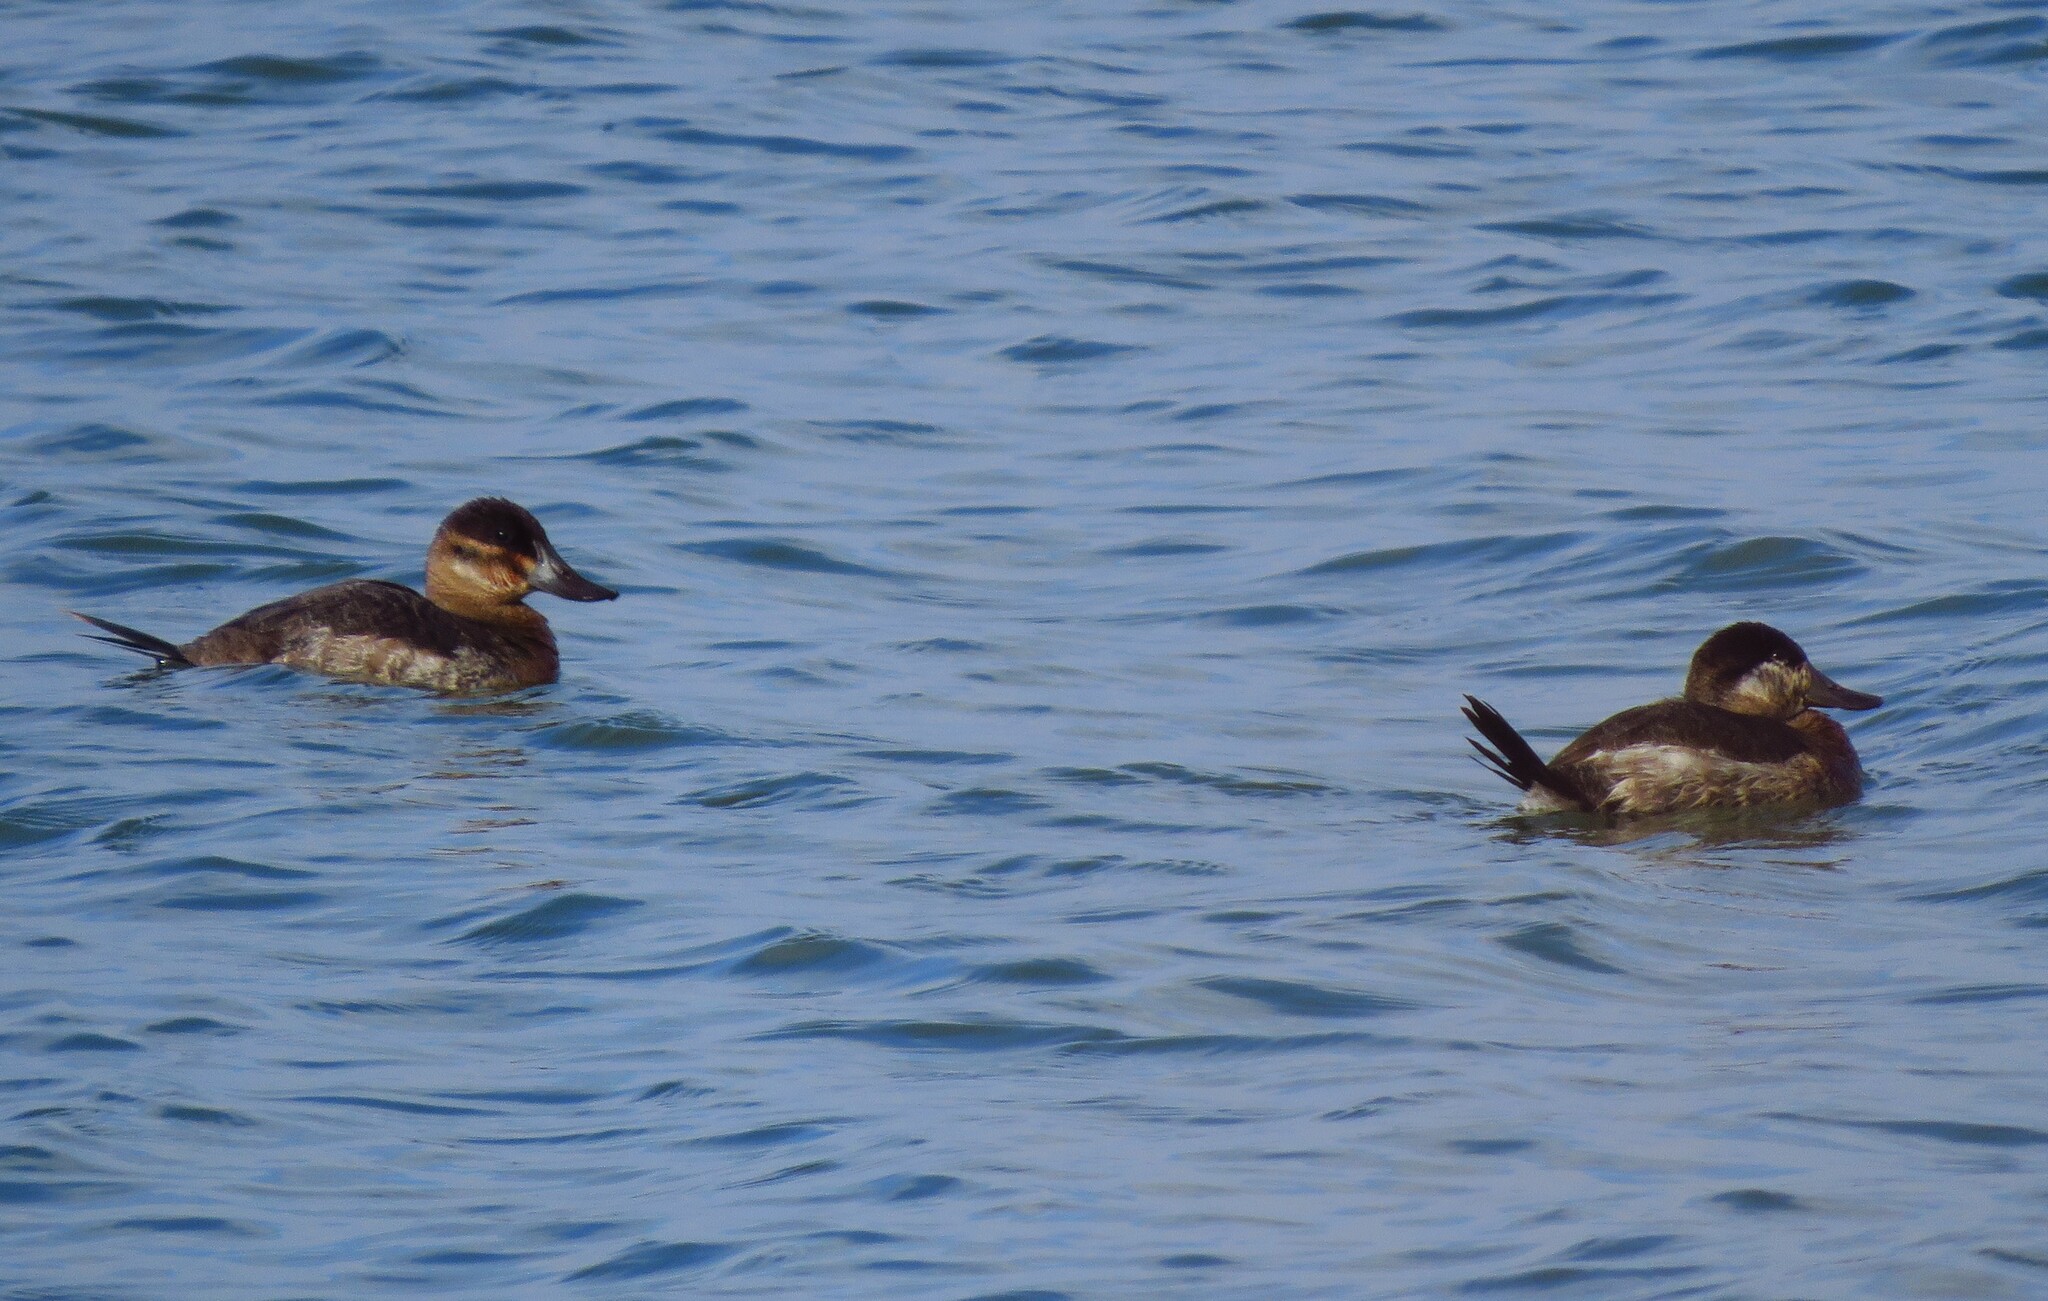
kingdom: Animalia
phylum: Chordata
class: Aves
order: Anseriformes
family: Anatidae
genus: Oxyura
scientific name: Oxyura jamaicensis
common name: Ruddy duck
